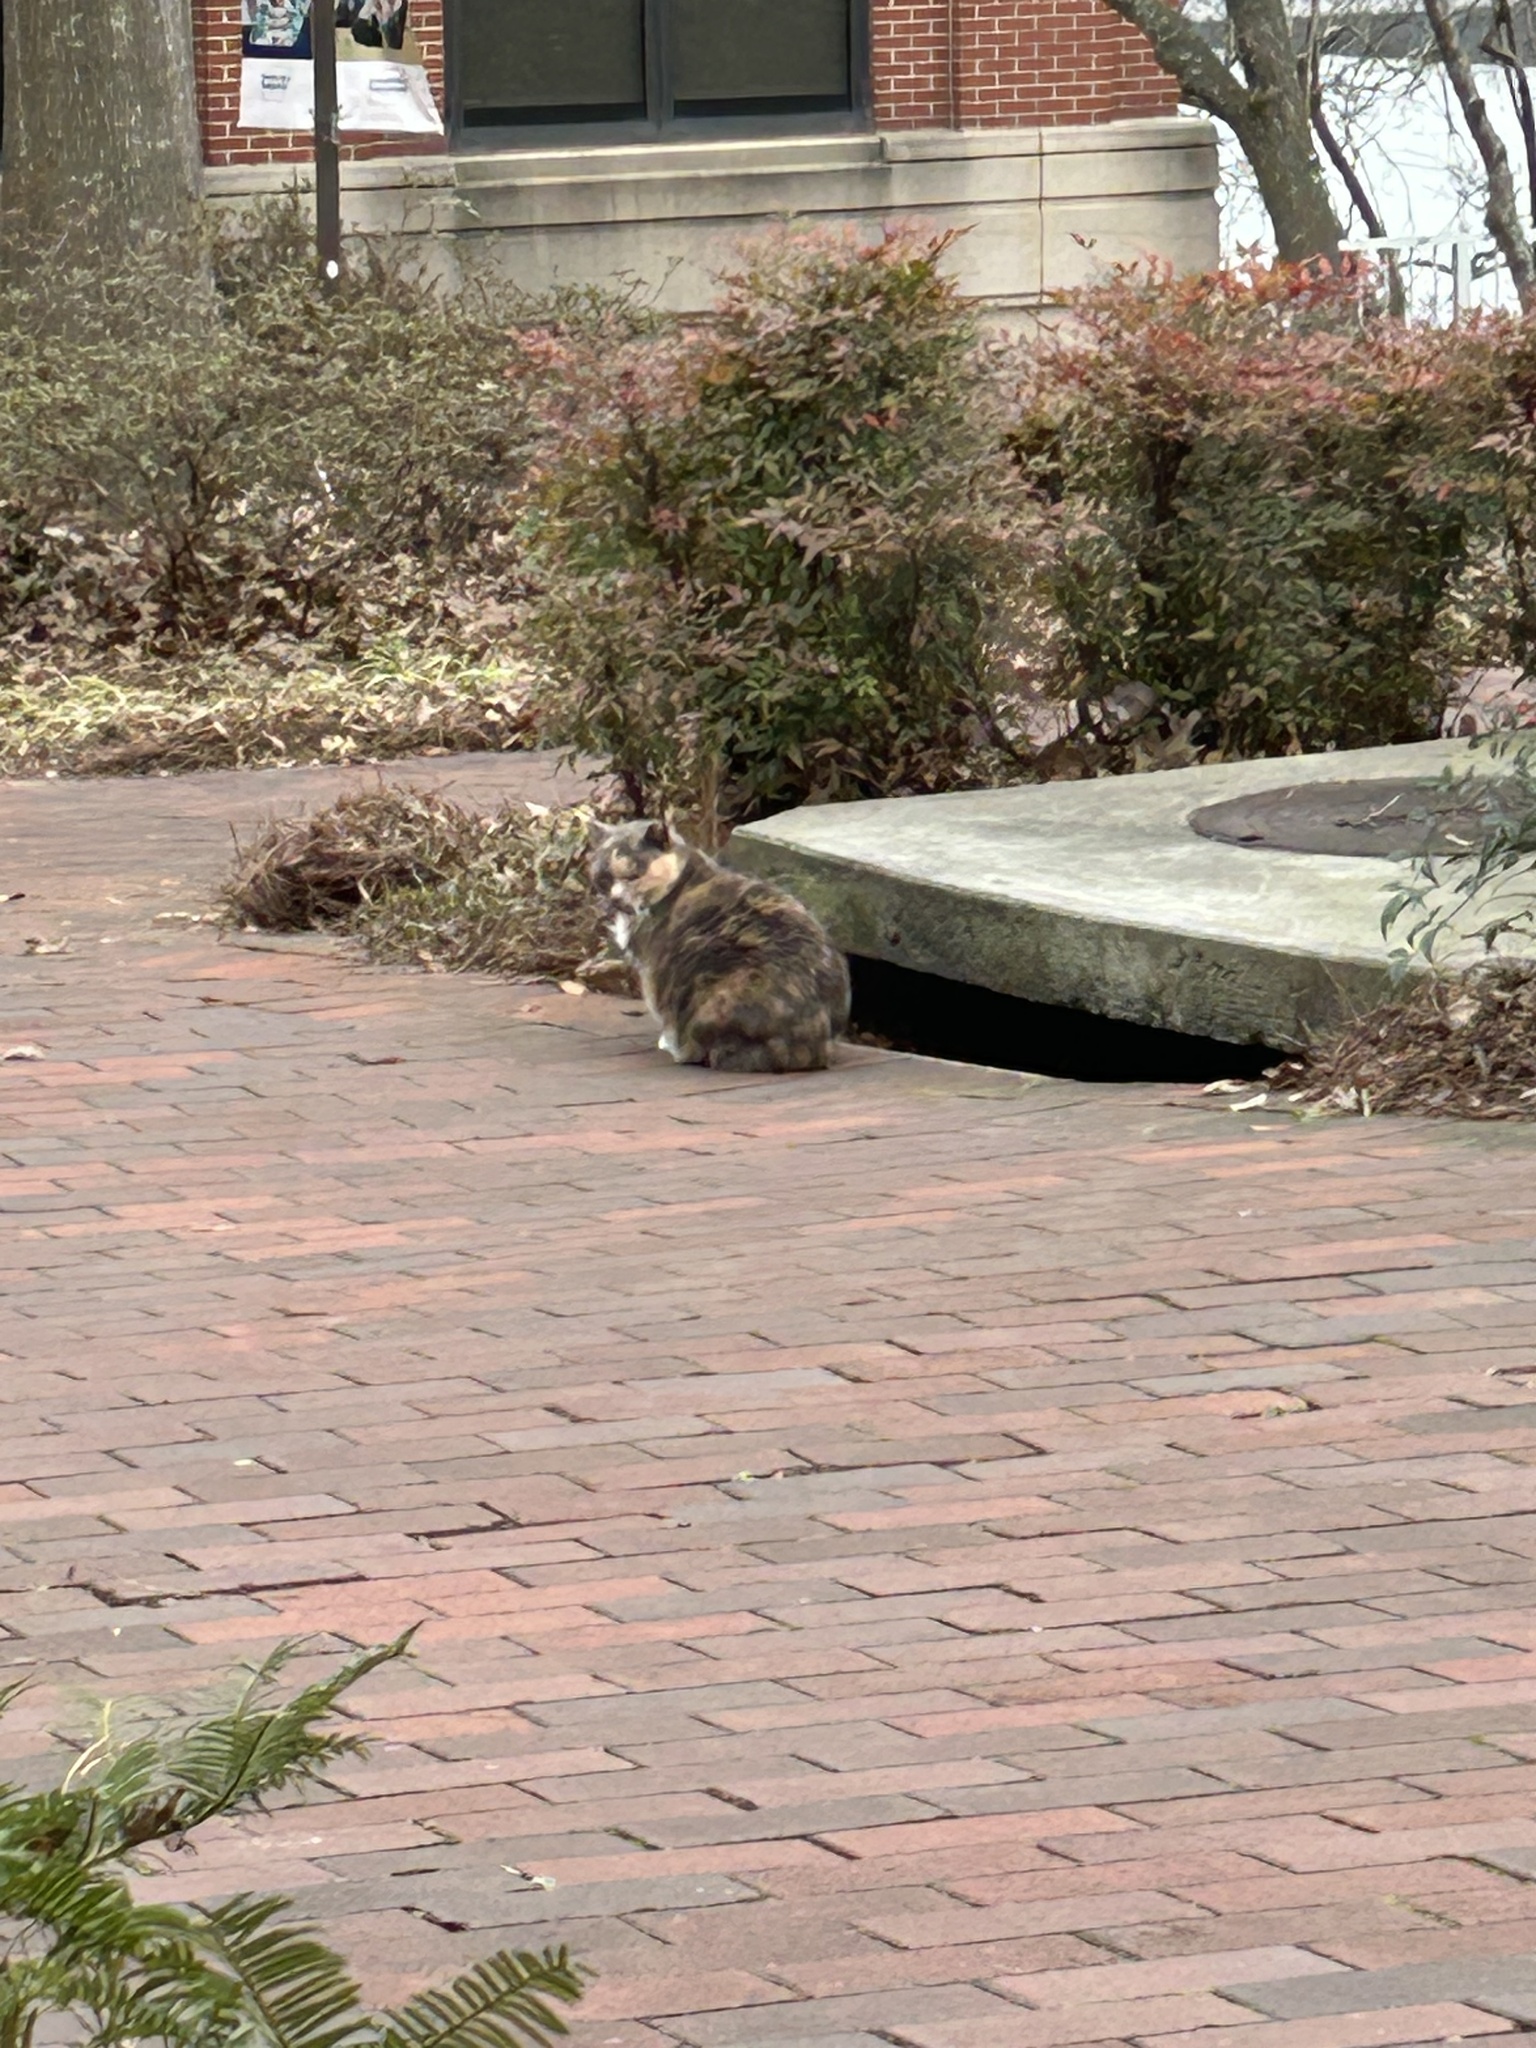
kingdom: Animalia
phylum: Chordata
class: Mammalia
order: Carnivora
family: Felidae
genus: Felis
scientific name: Felis catus
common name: Domestic cat
